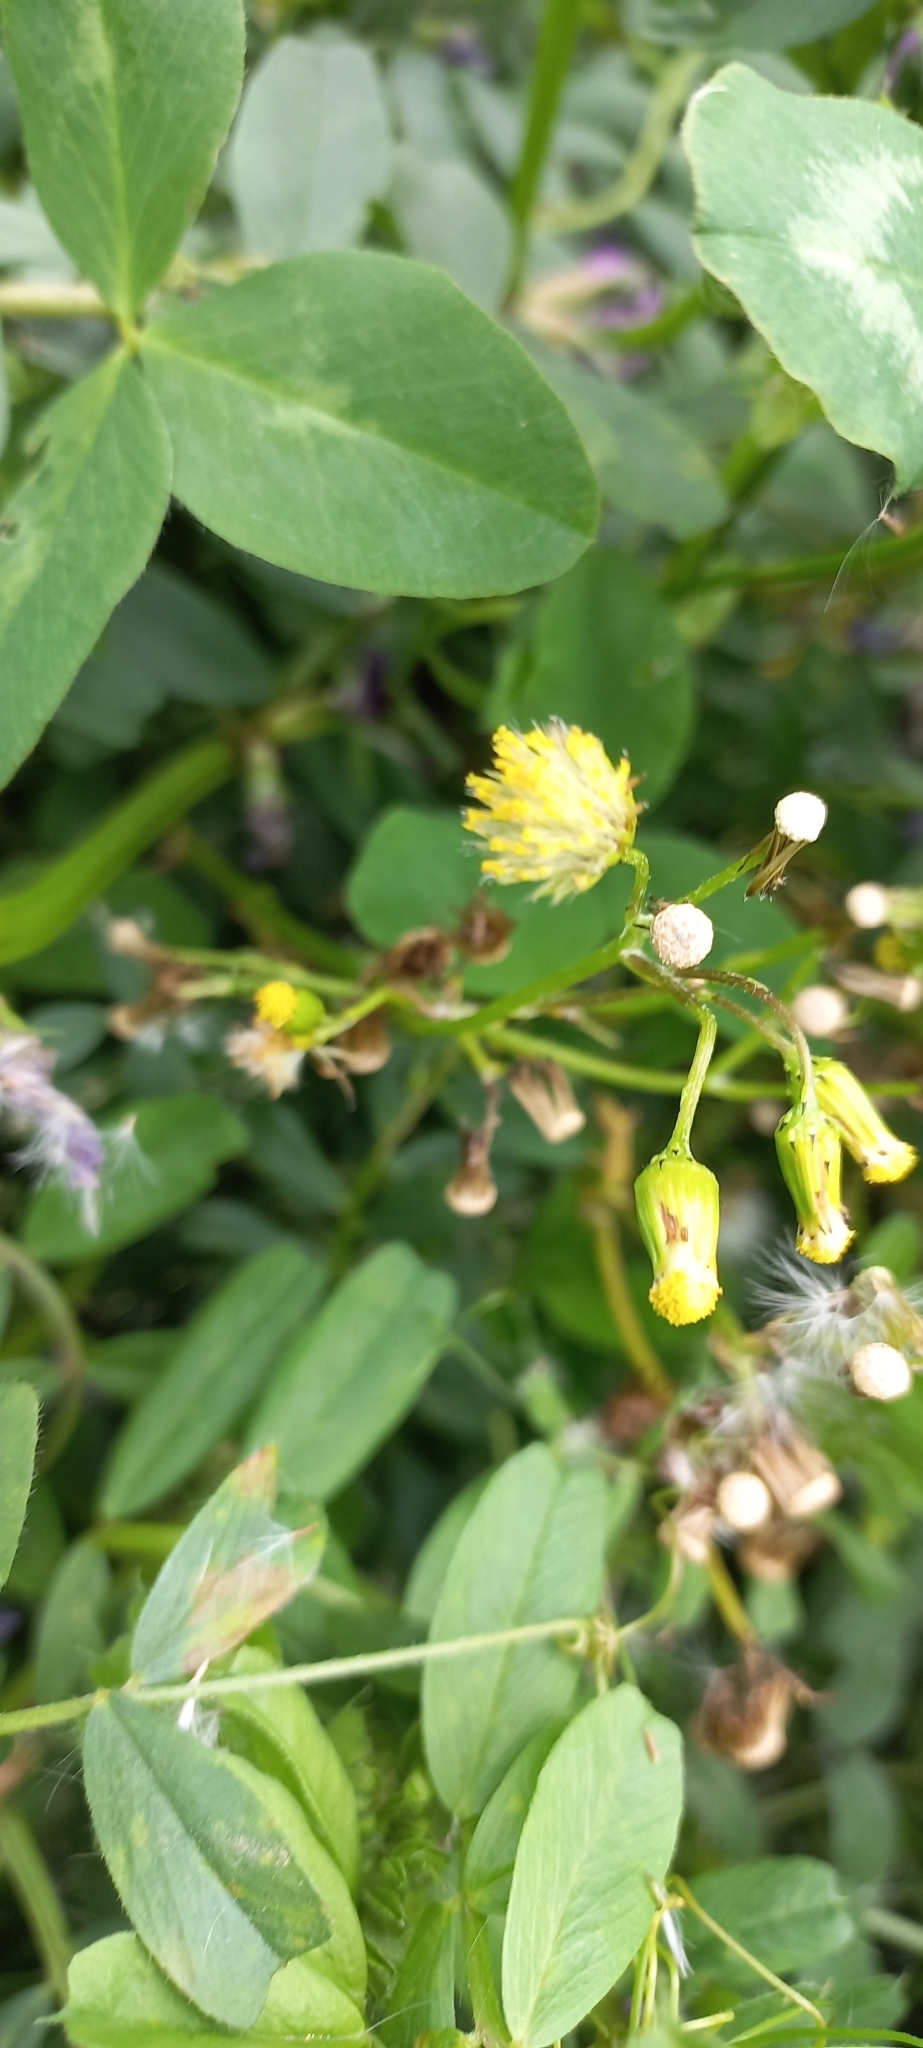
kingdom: Plantae
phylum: Tracheophyta
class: Magnoliopsida
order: Asterales
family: Asteraceae
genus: Senecio
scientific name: Senecio vulgaris
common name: Old-man-in-the-spring
